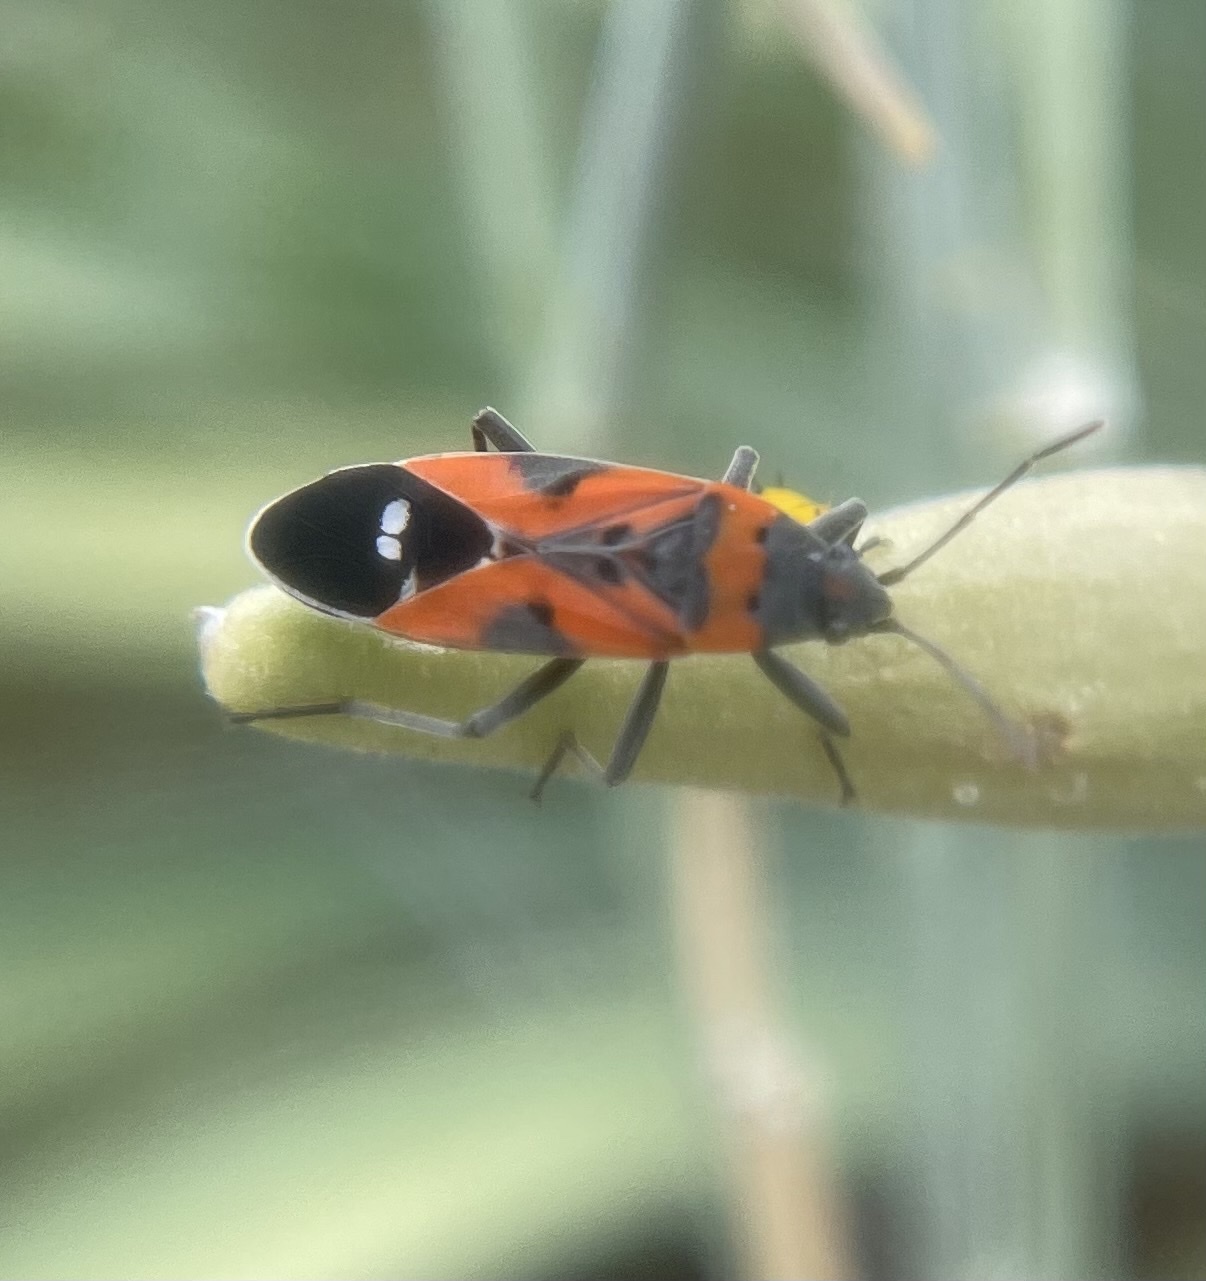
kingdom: Animalia
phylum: Arthropoda
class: Insecta
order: Hemiptera
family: Lygaeidae
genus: Lygaeus
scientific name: Lygaeus reclivatus
